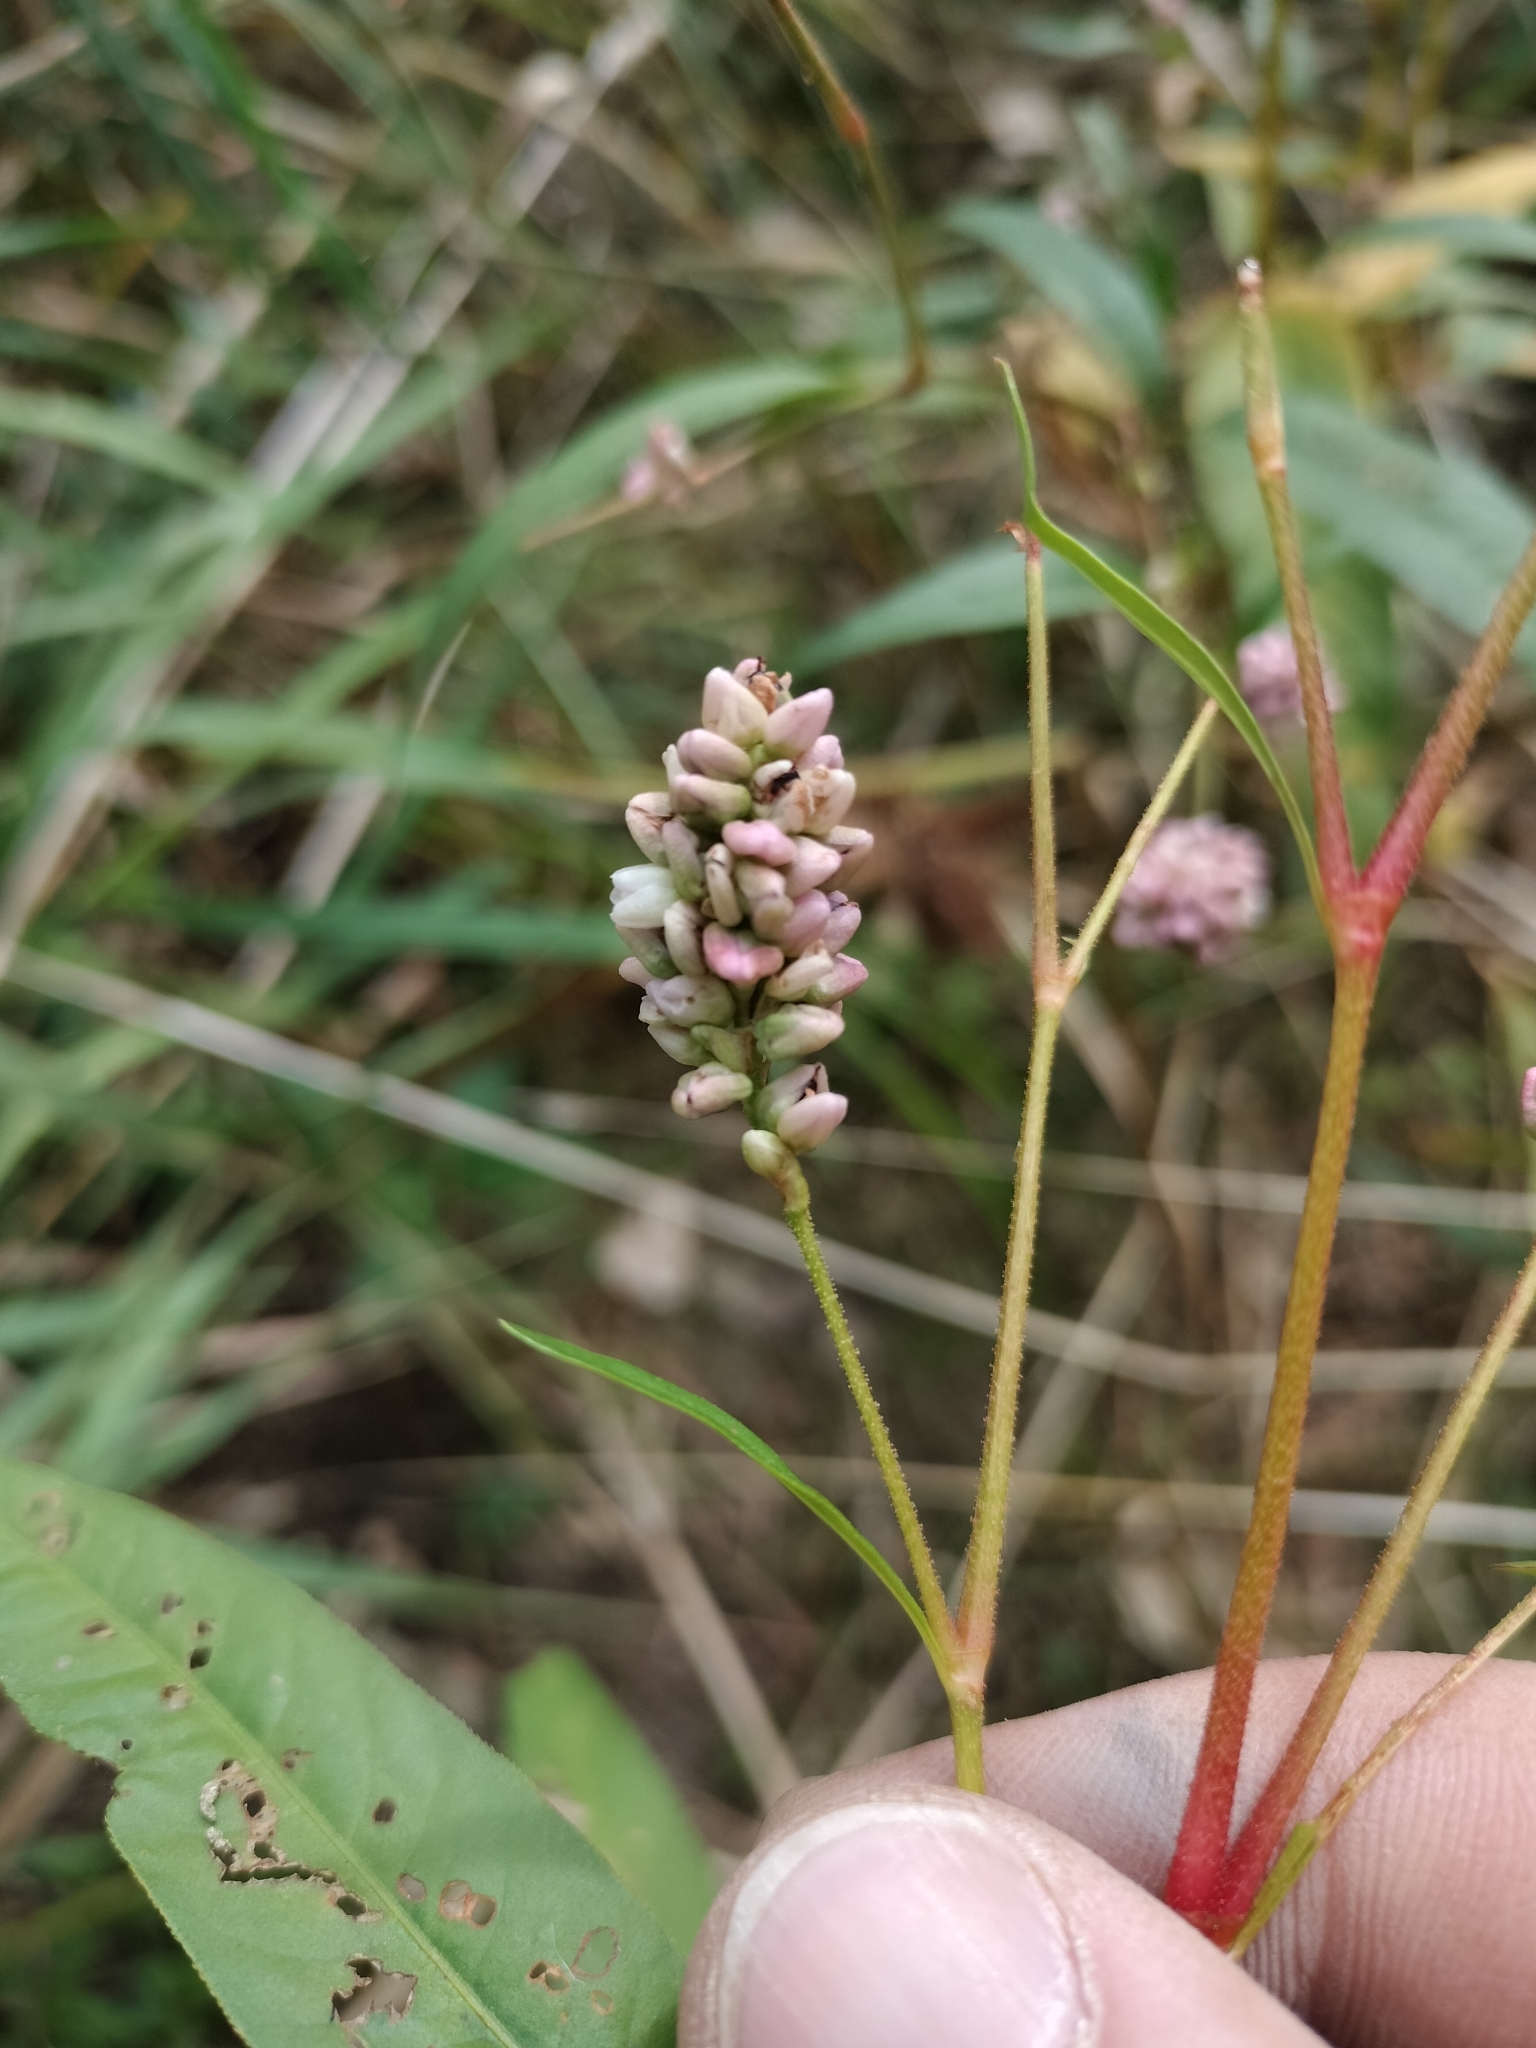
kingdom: Plantae
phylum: Tracheophyta
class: Magnoliopsida
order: Caryophyllales
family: Polygonaceae
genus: Persicaria
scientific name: Persicaria pensylvanica
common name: Pinkweed
